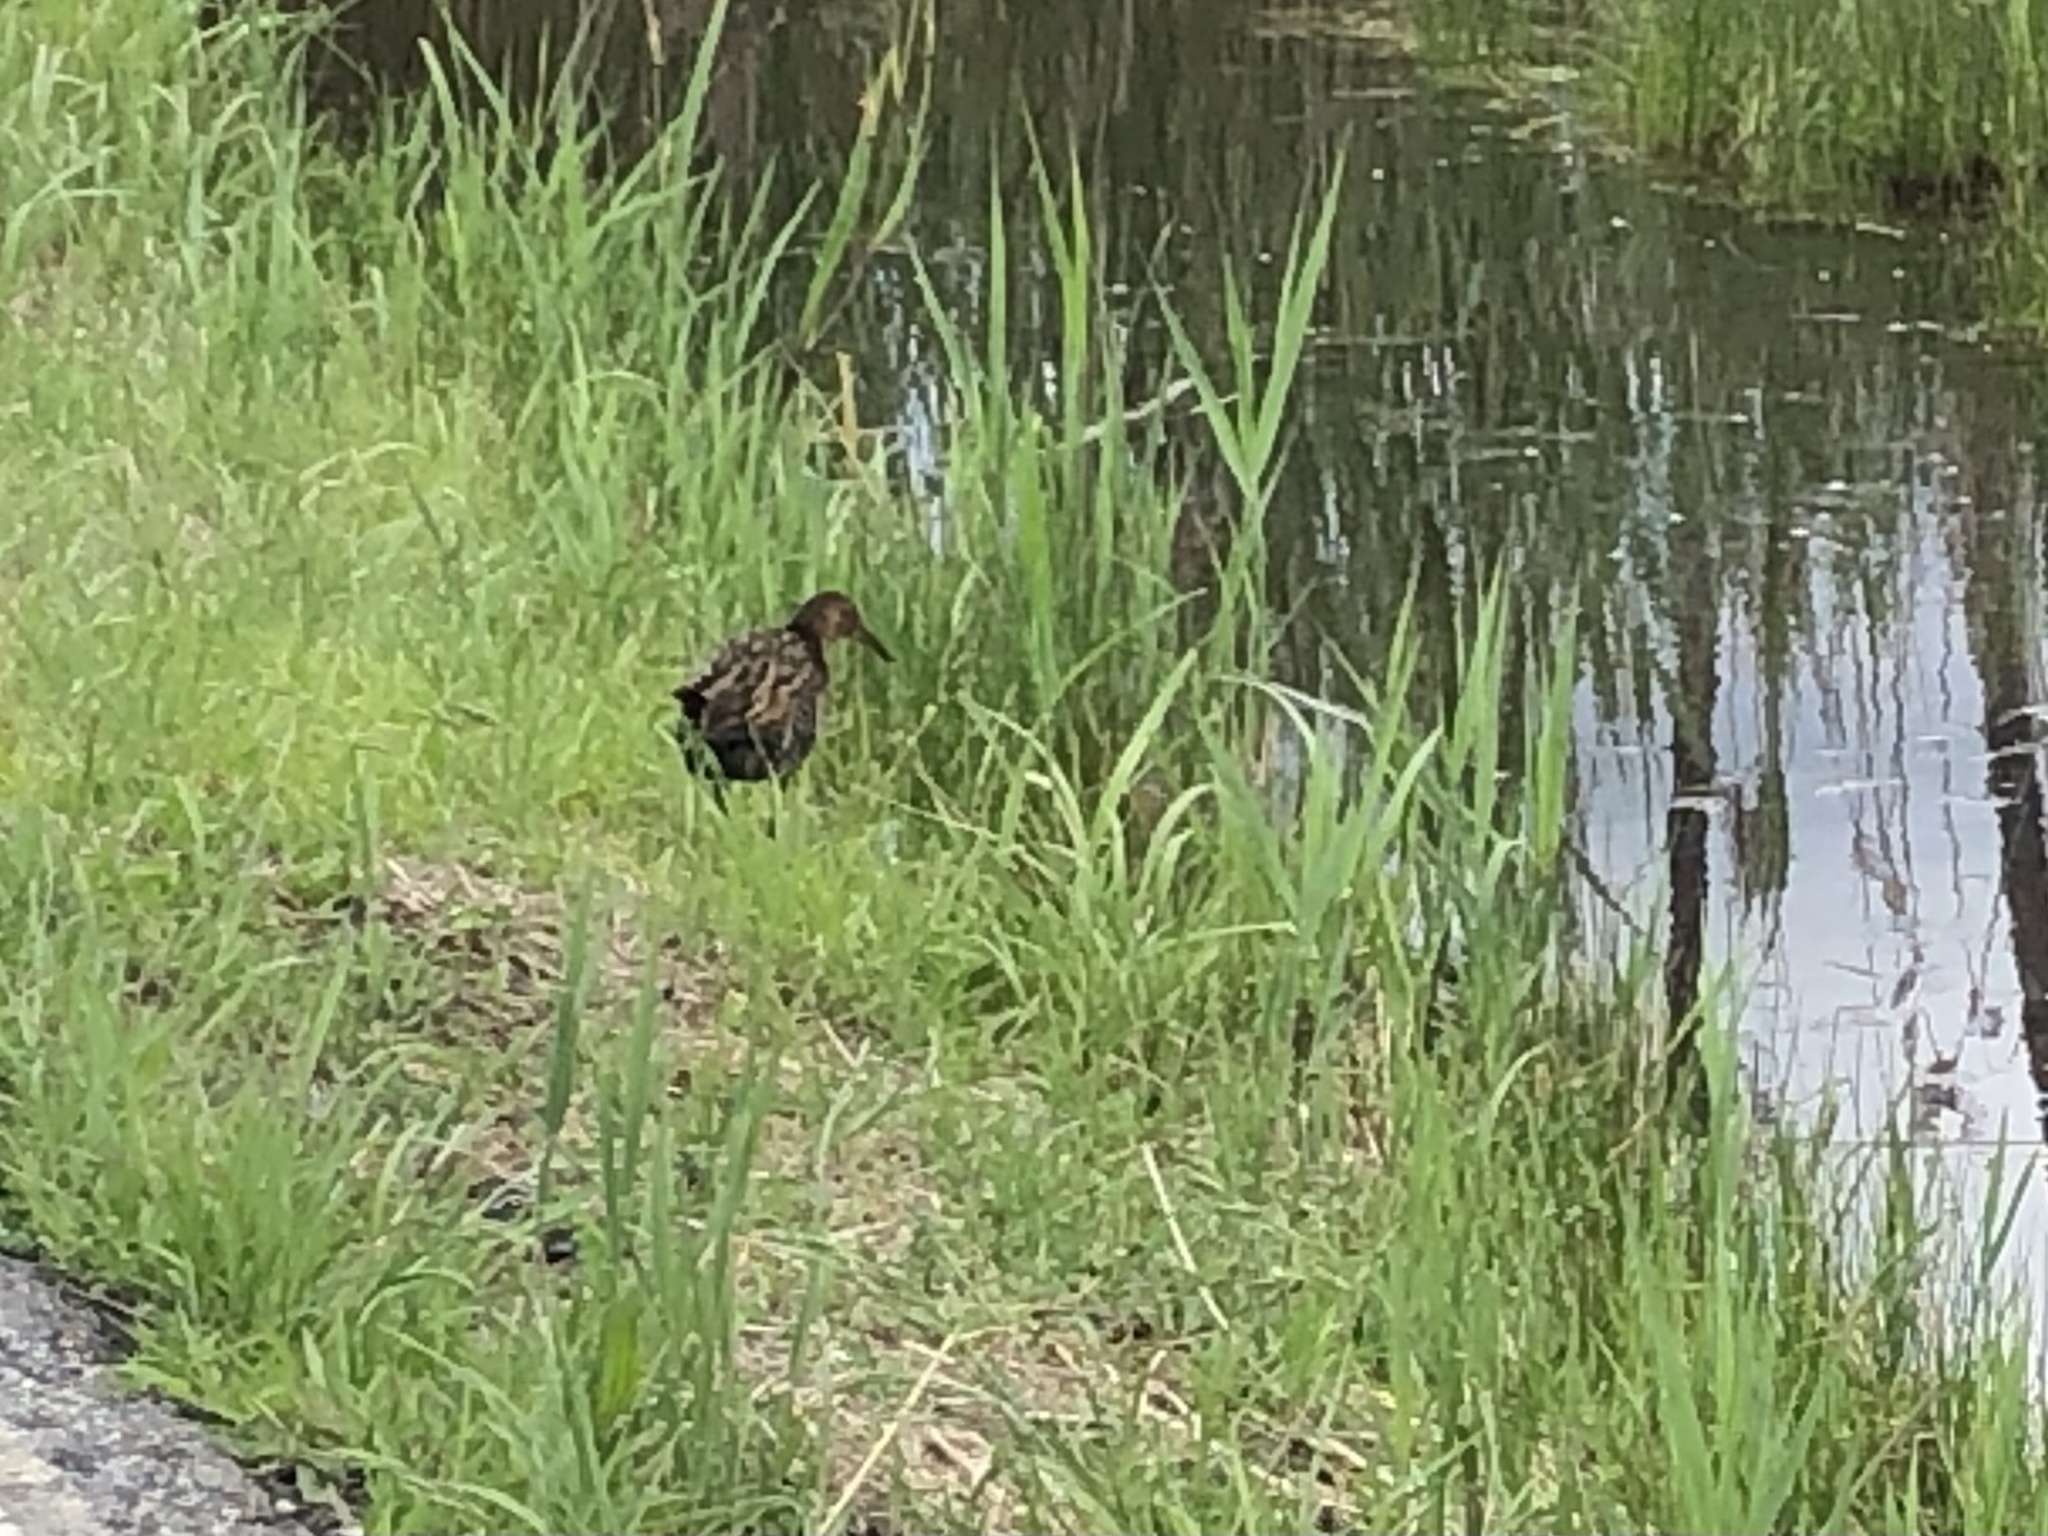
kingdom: Animalia
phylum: Chordata
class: Aves
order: Gruiformes
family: Rallidae
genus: Rallus
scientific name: Rallus elegans
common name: King rail
